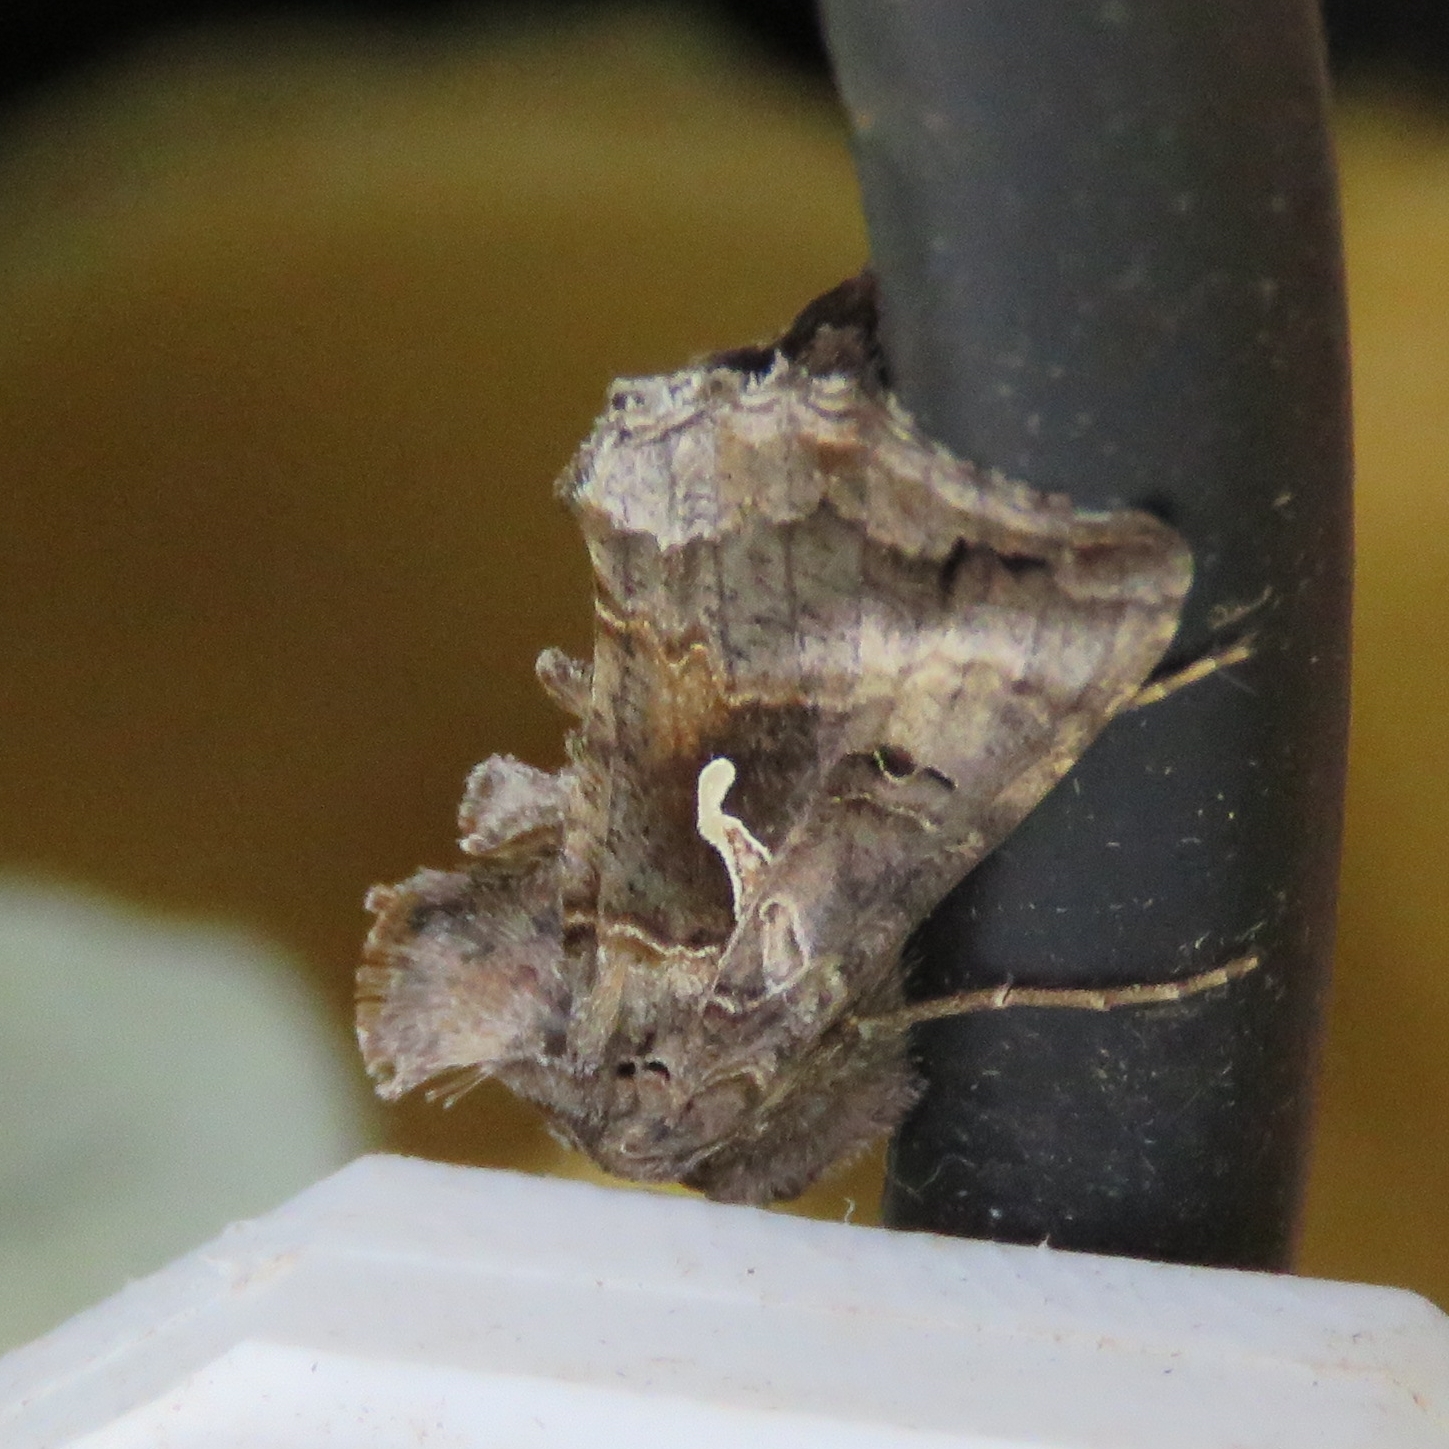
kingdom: Animalia
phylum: Arthropoda
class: Insecta
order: Lepidoptera
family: Noctuidae
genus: Autographa
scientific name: Autographa gamma
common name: Silver y
